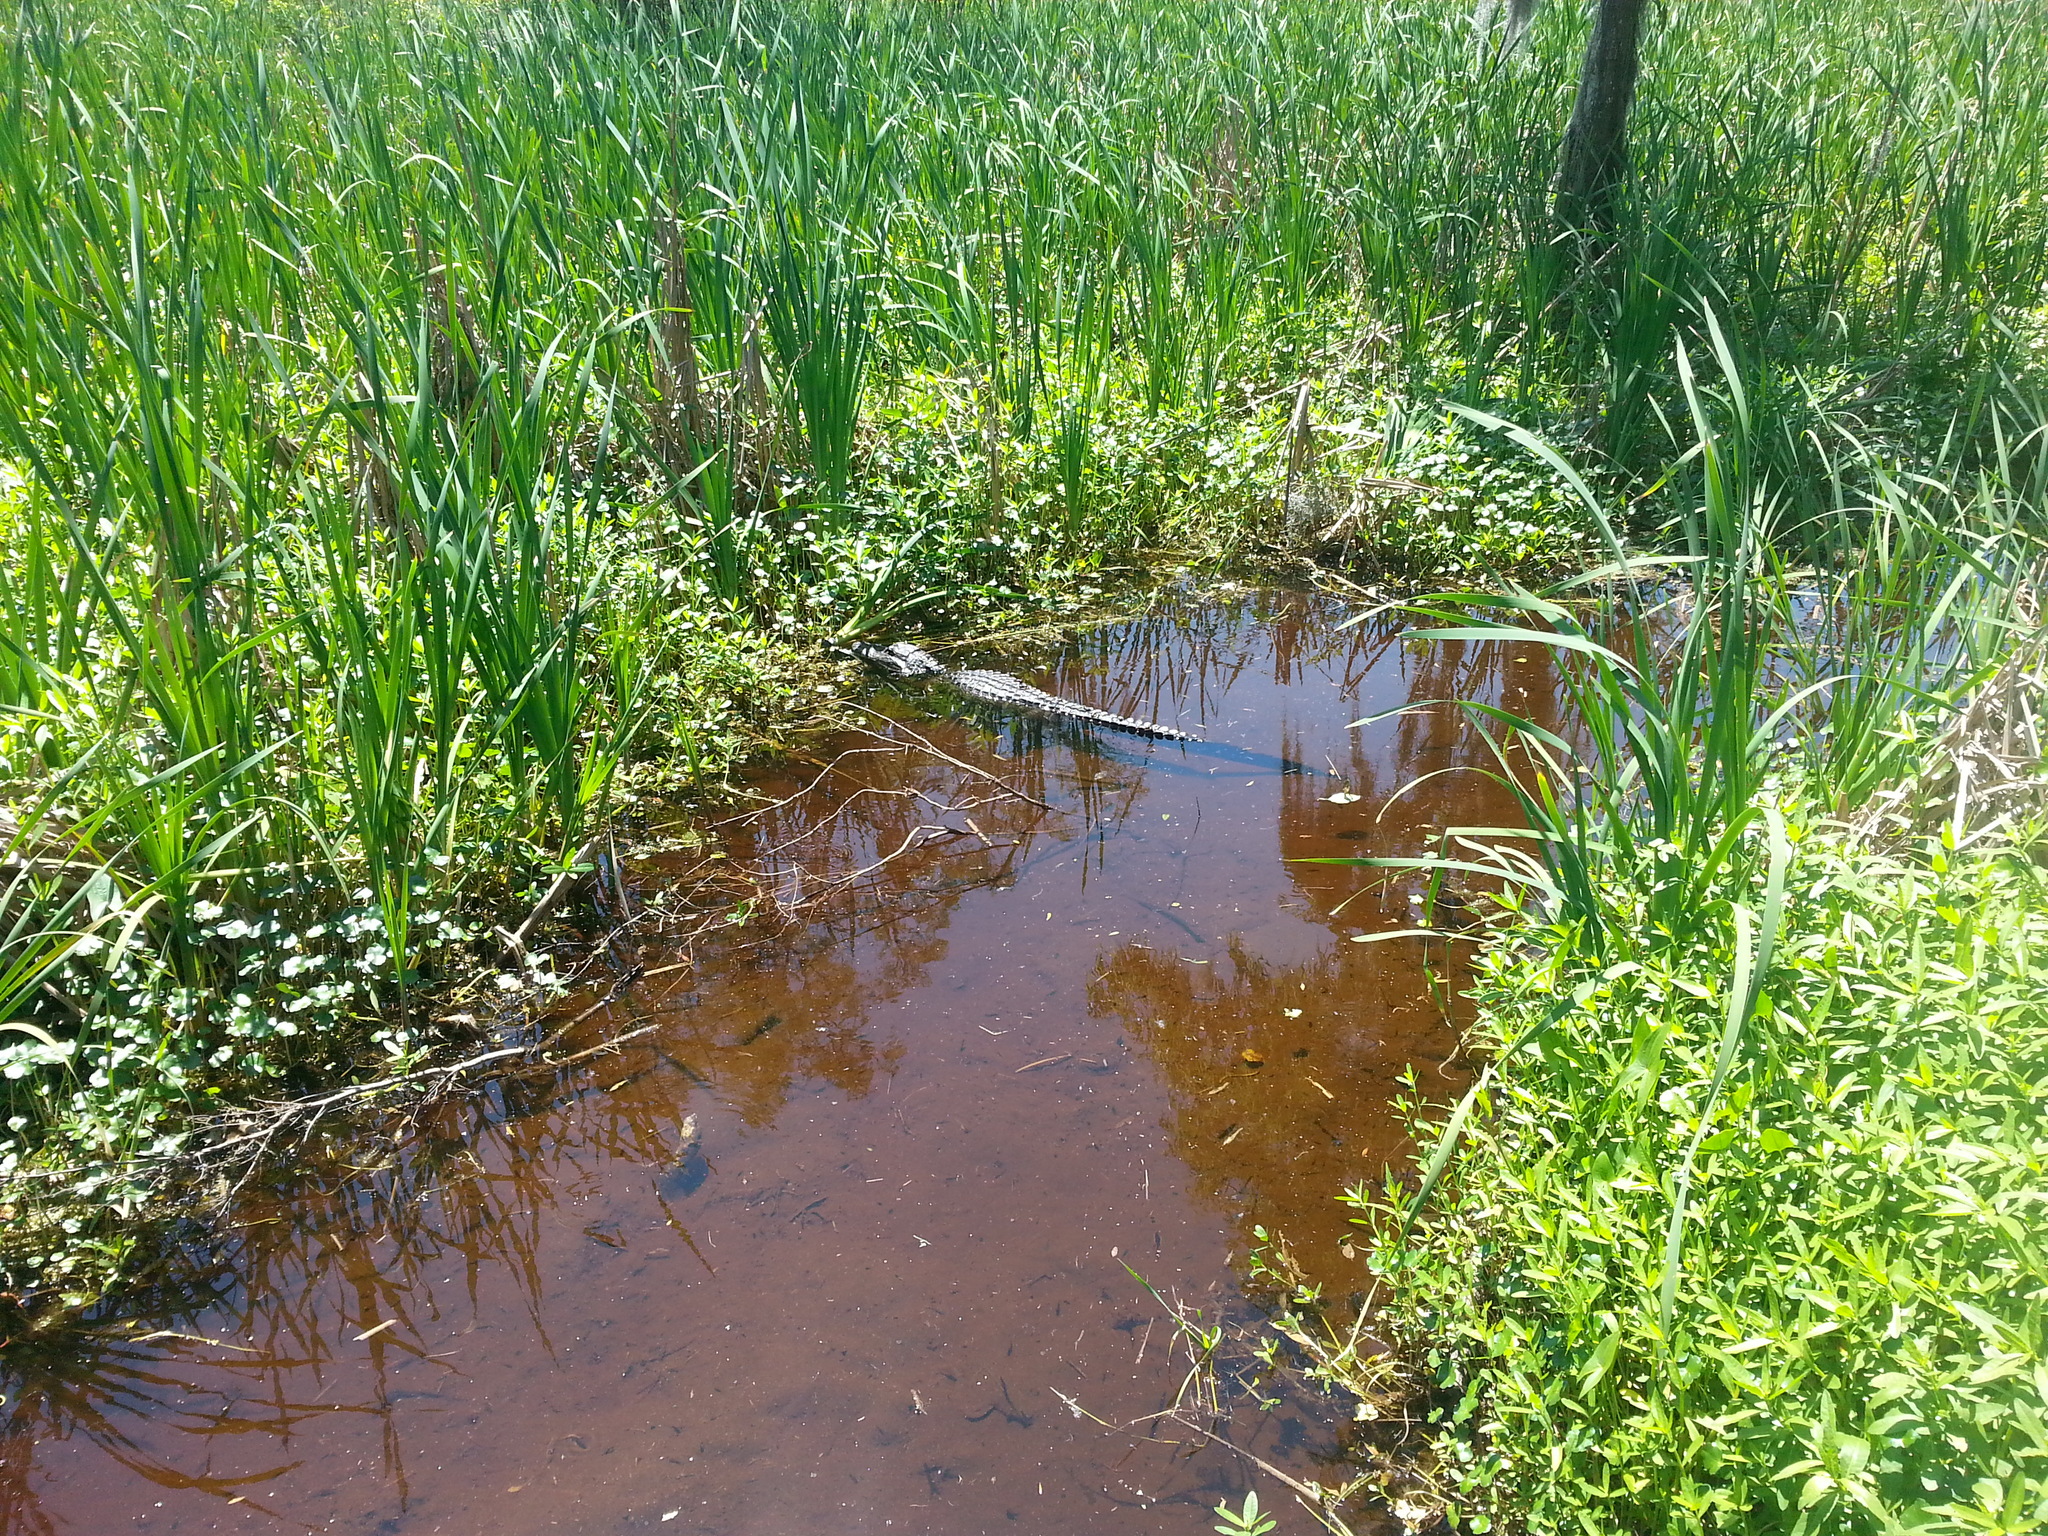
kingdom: Animalia
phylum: Chordata
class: Crocodylia
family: Alligatoridae
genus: Alligator
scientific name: Alligator mississippiensis
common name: American alligator
